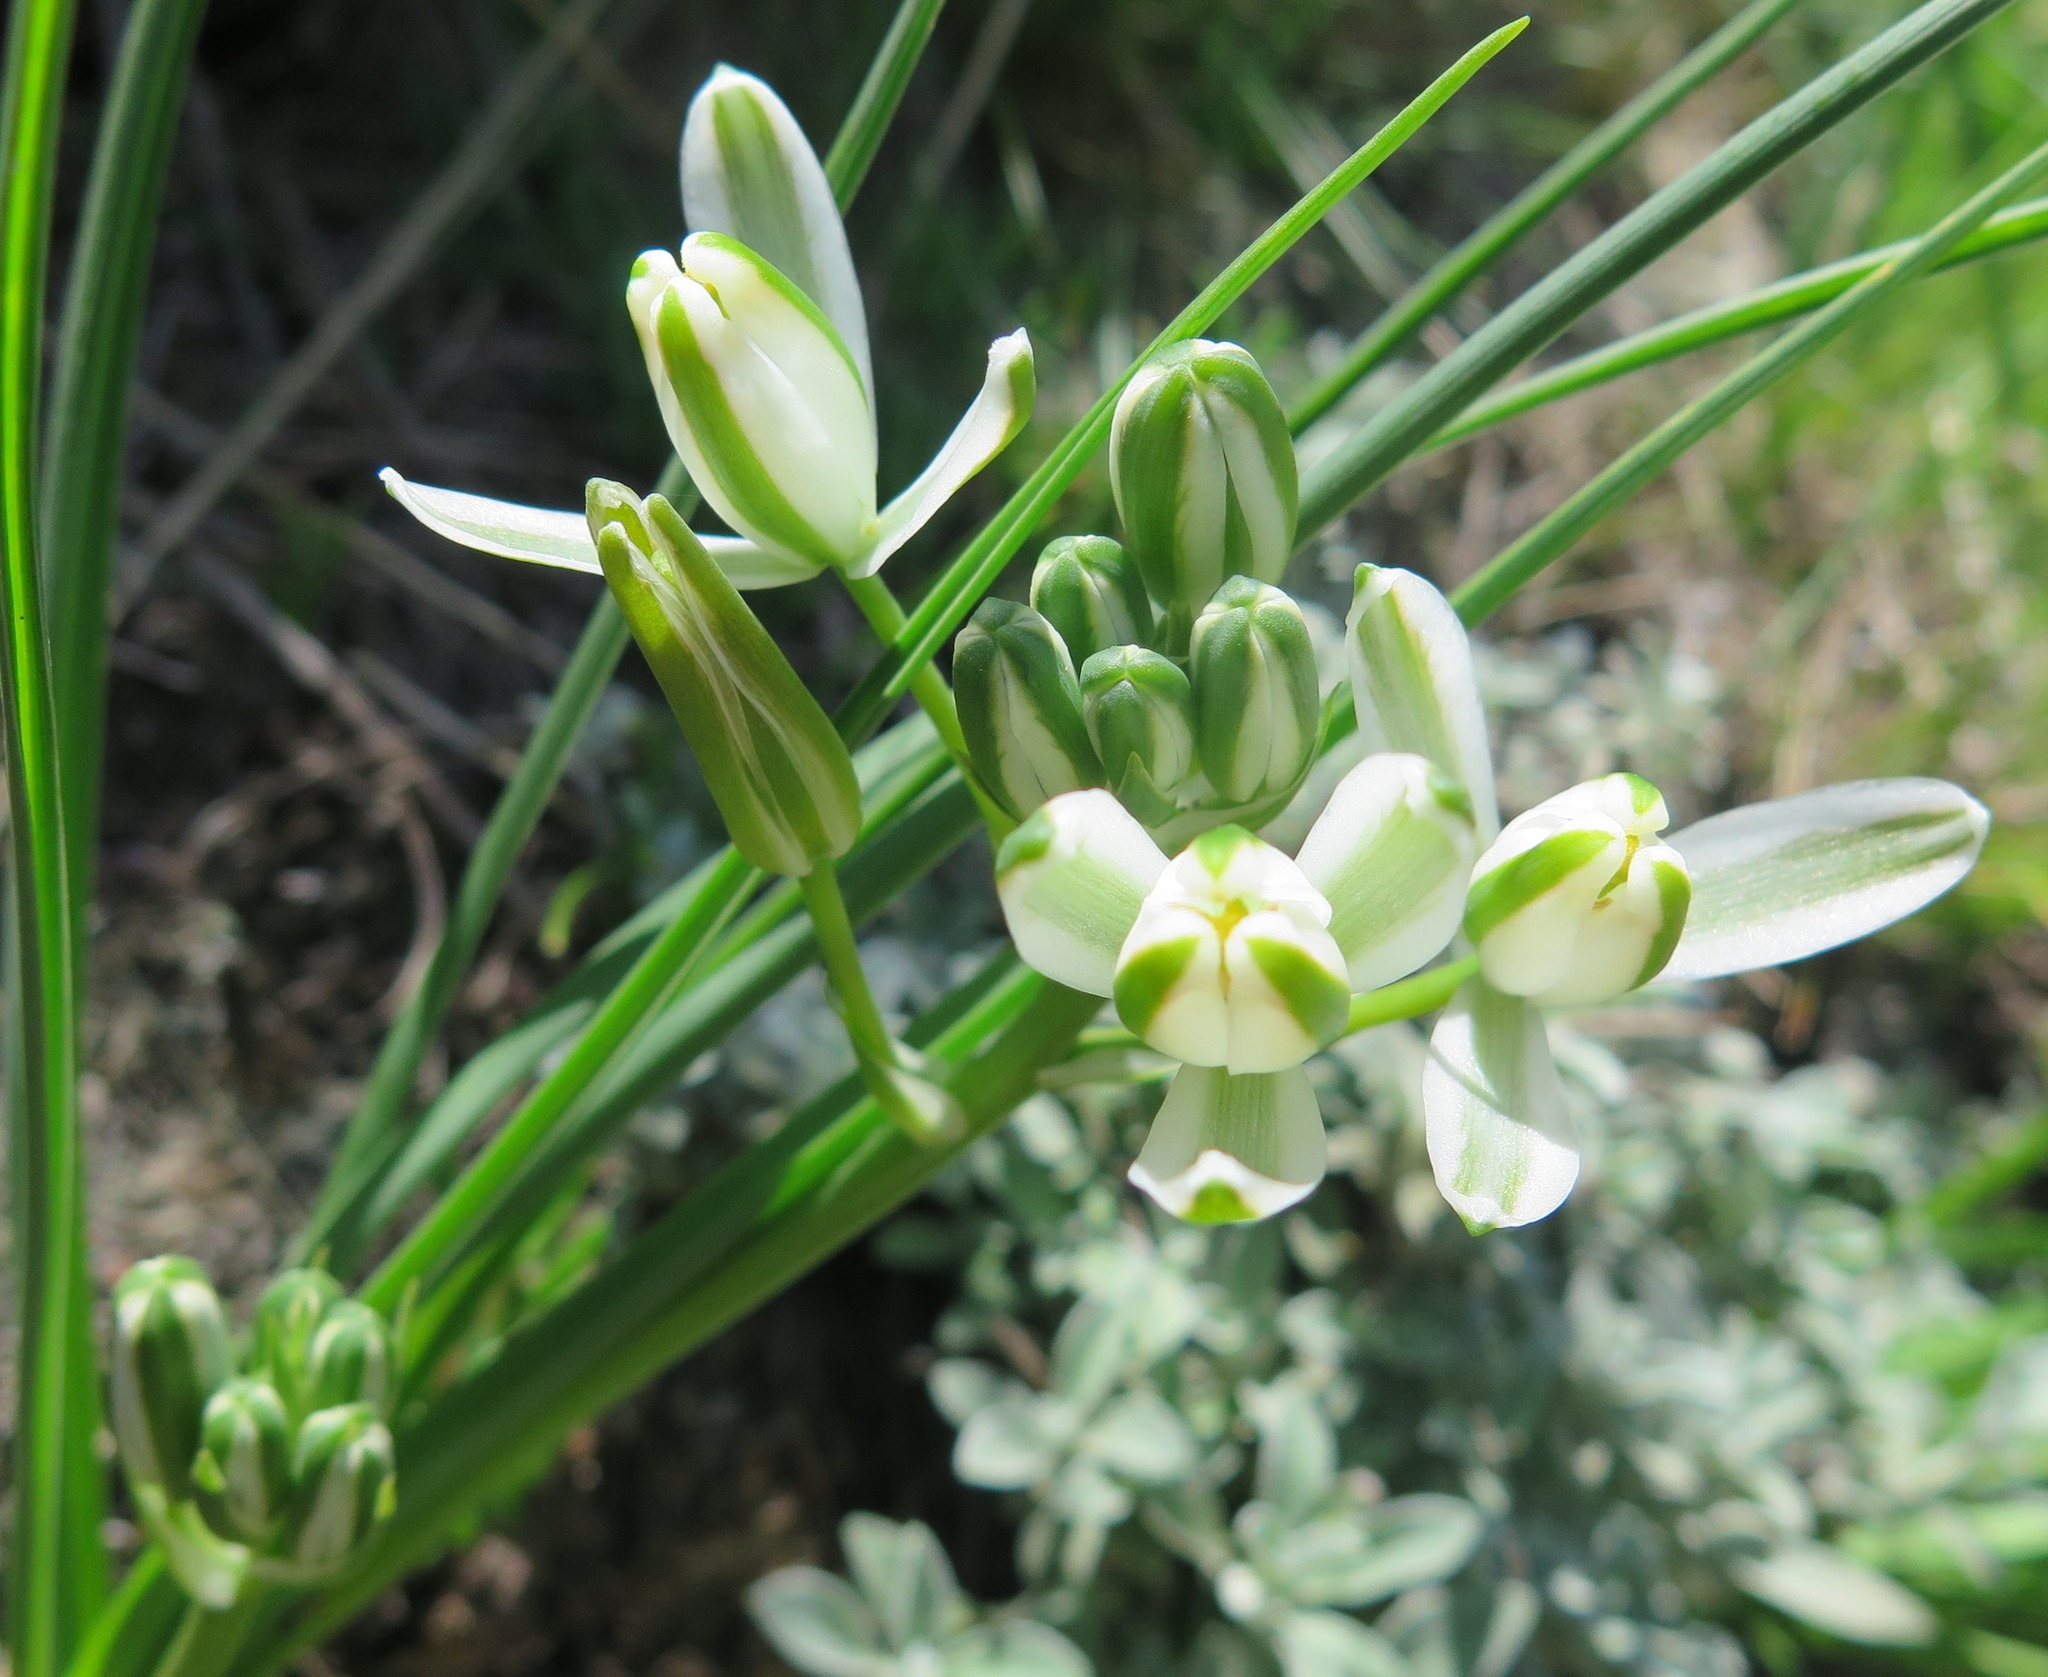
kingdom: Plantae
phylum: Tracheophyta
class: Liliopsida
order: Asparagales
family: Asparagaceae
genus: Albuca
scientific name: Albuca setosa
